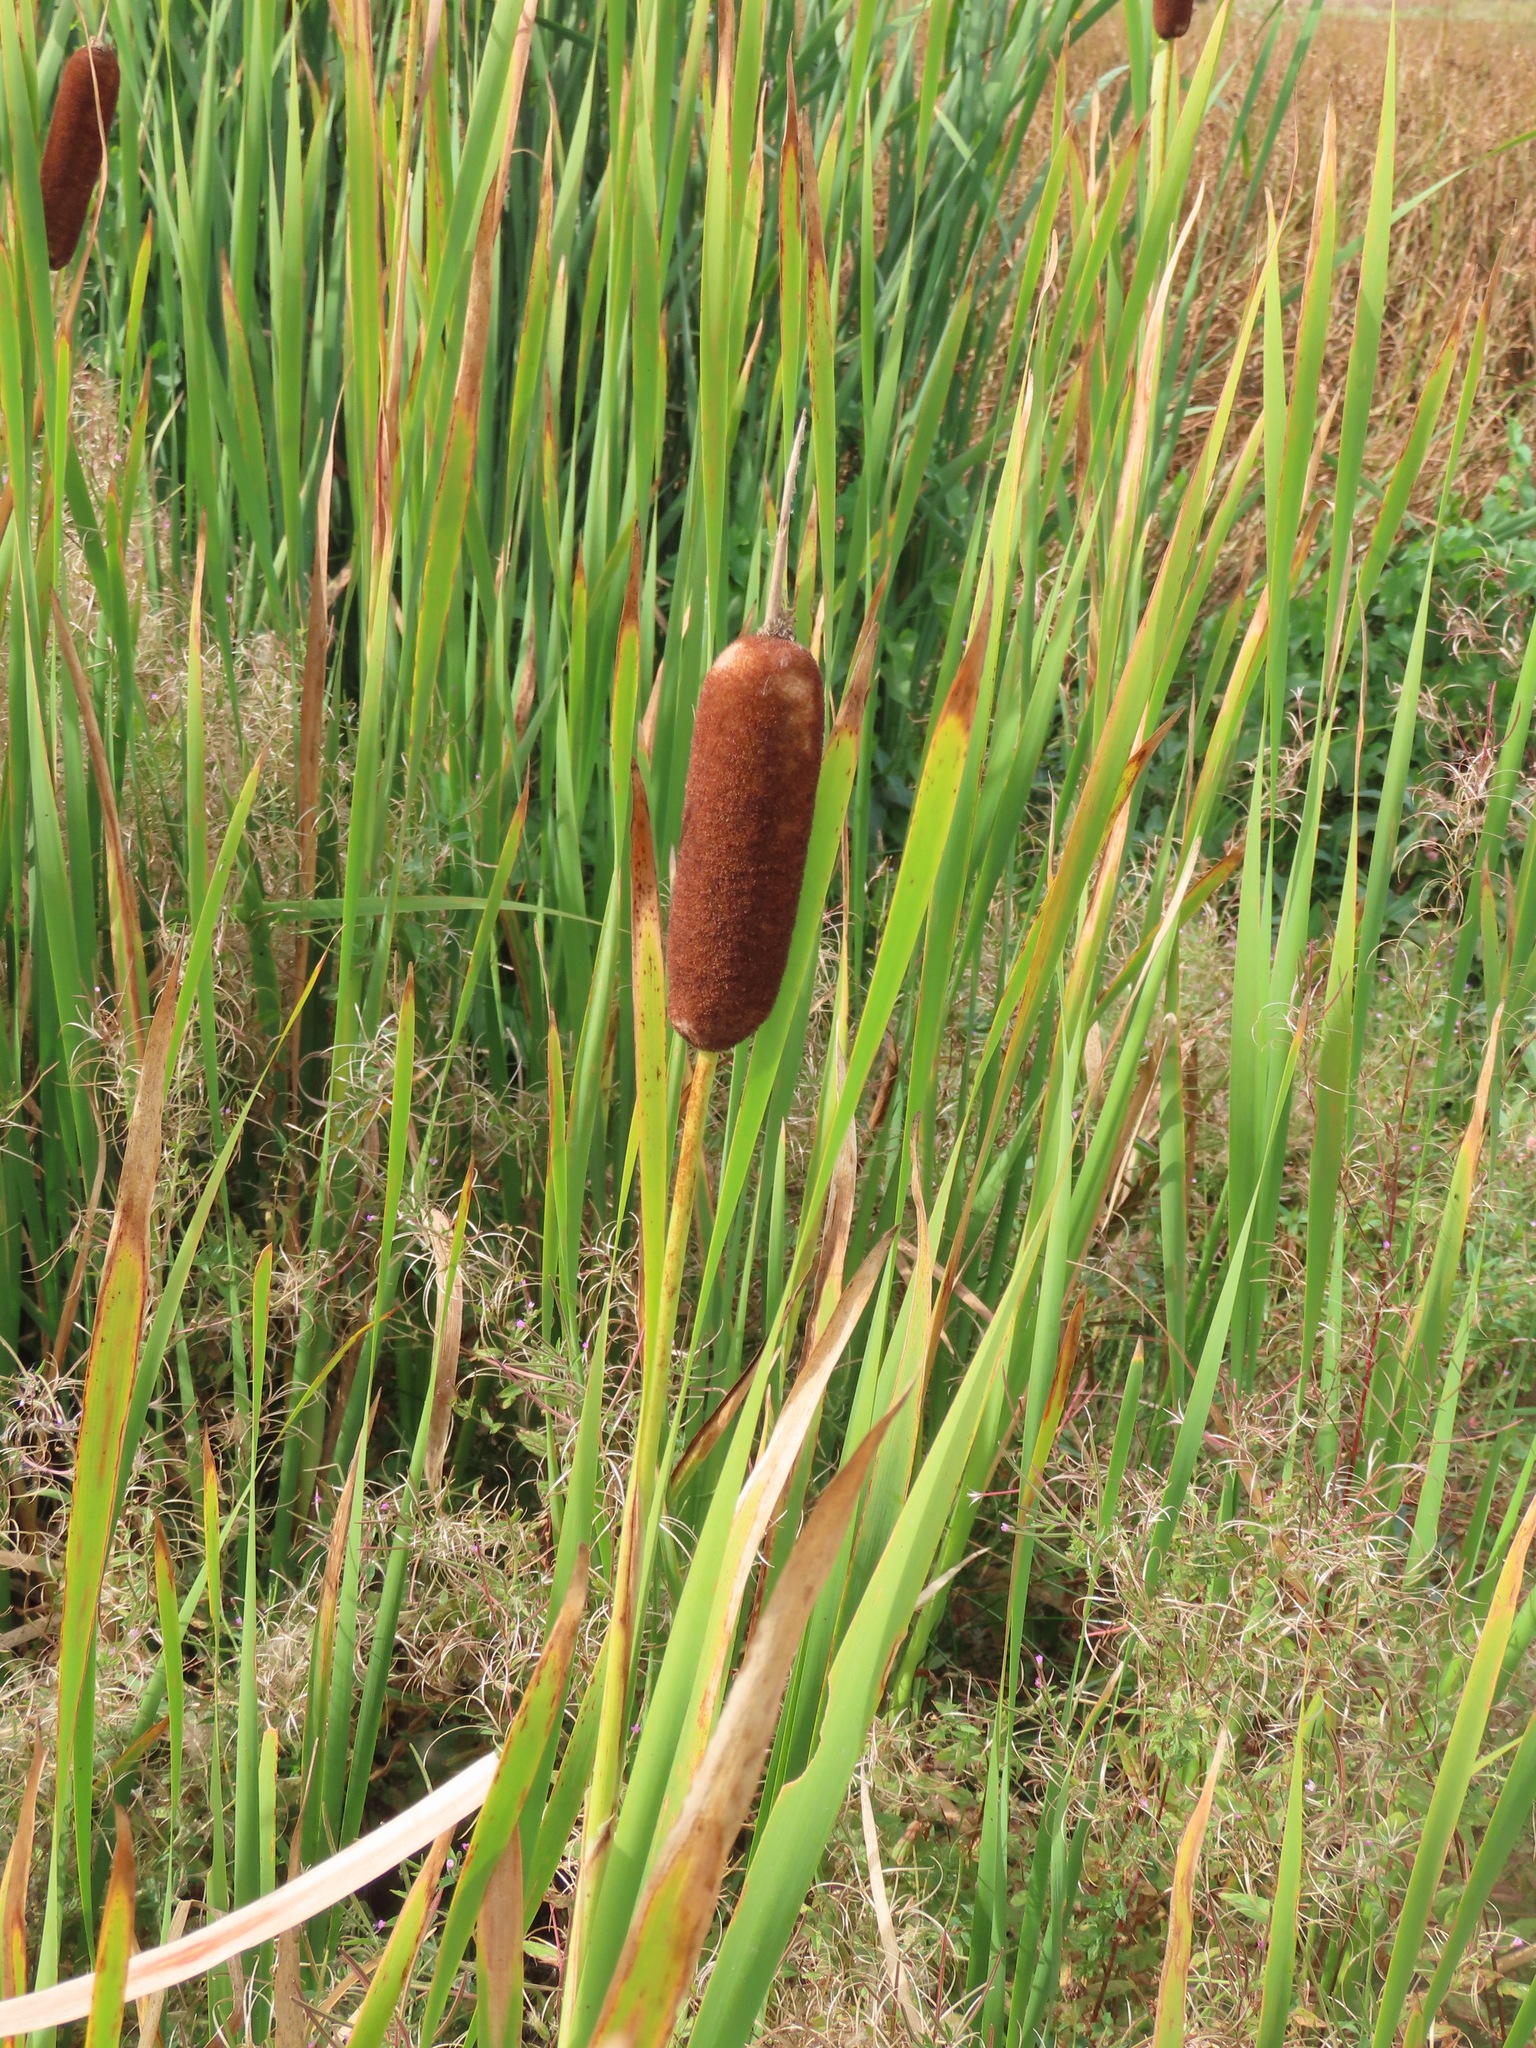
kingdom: Plantae
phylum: Tracheophyta
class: Liliopsida
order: Poales
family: Typhaceae
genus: Typha
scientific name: Typha latifolia
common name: Broadleaf cattail
